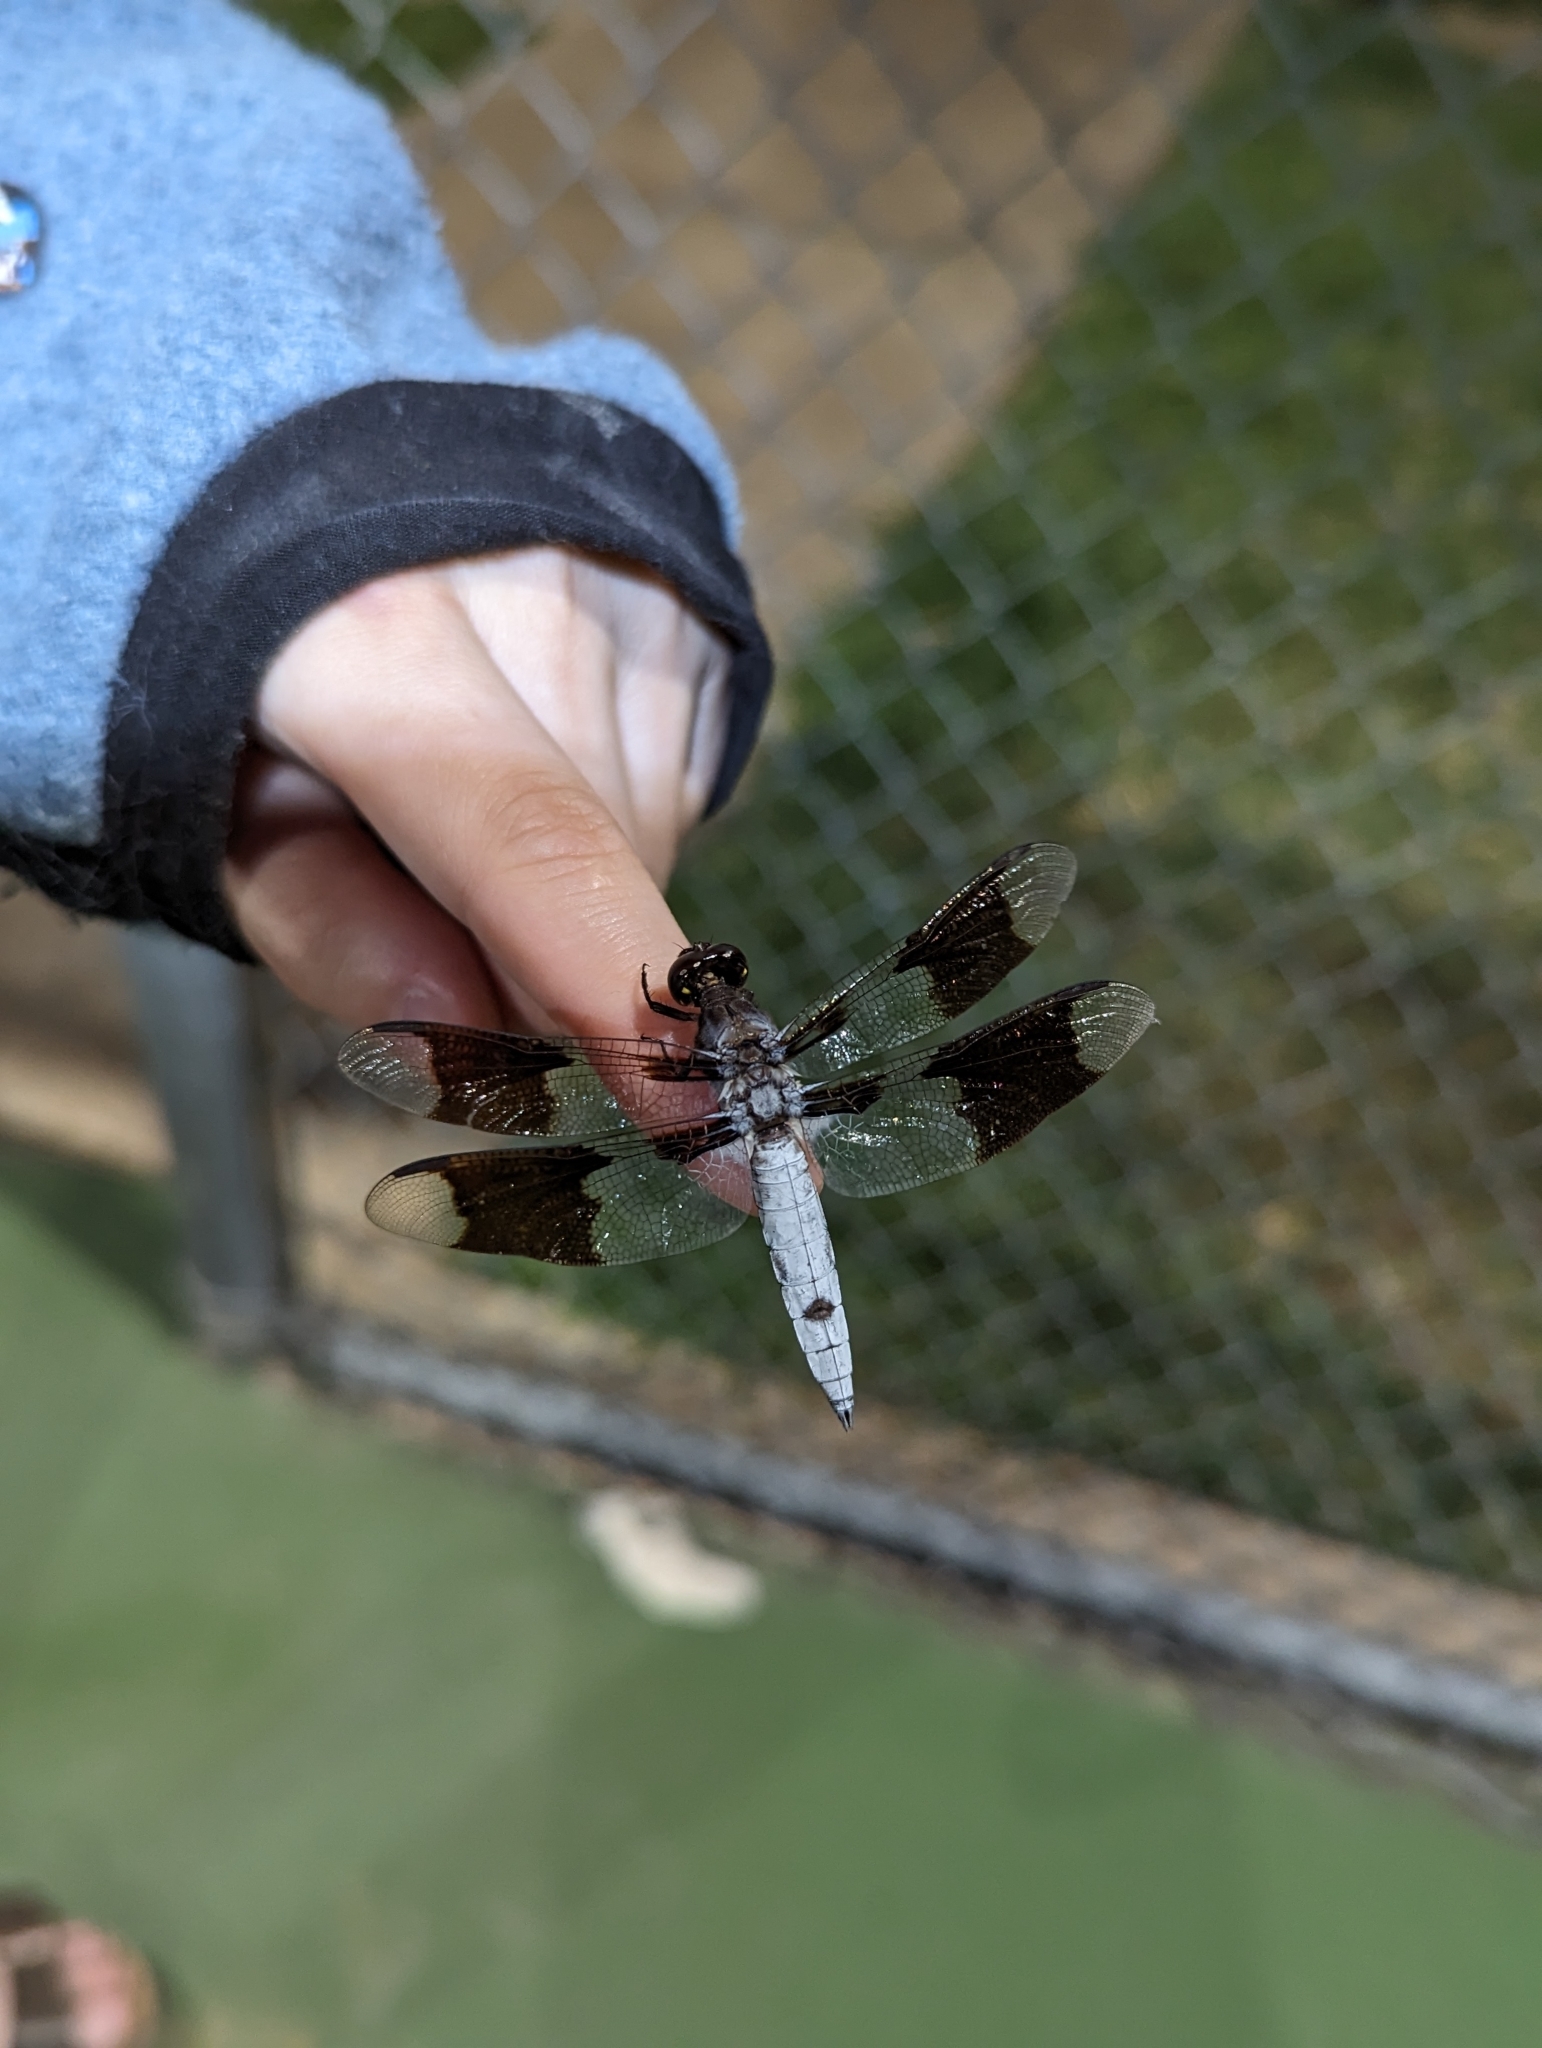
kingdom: Animalia
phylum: Arthropoda
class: Insecta
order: Odonata
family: Libellulidae
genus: Plathemis
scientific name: Plathemis lydia
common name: Common whitetail
